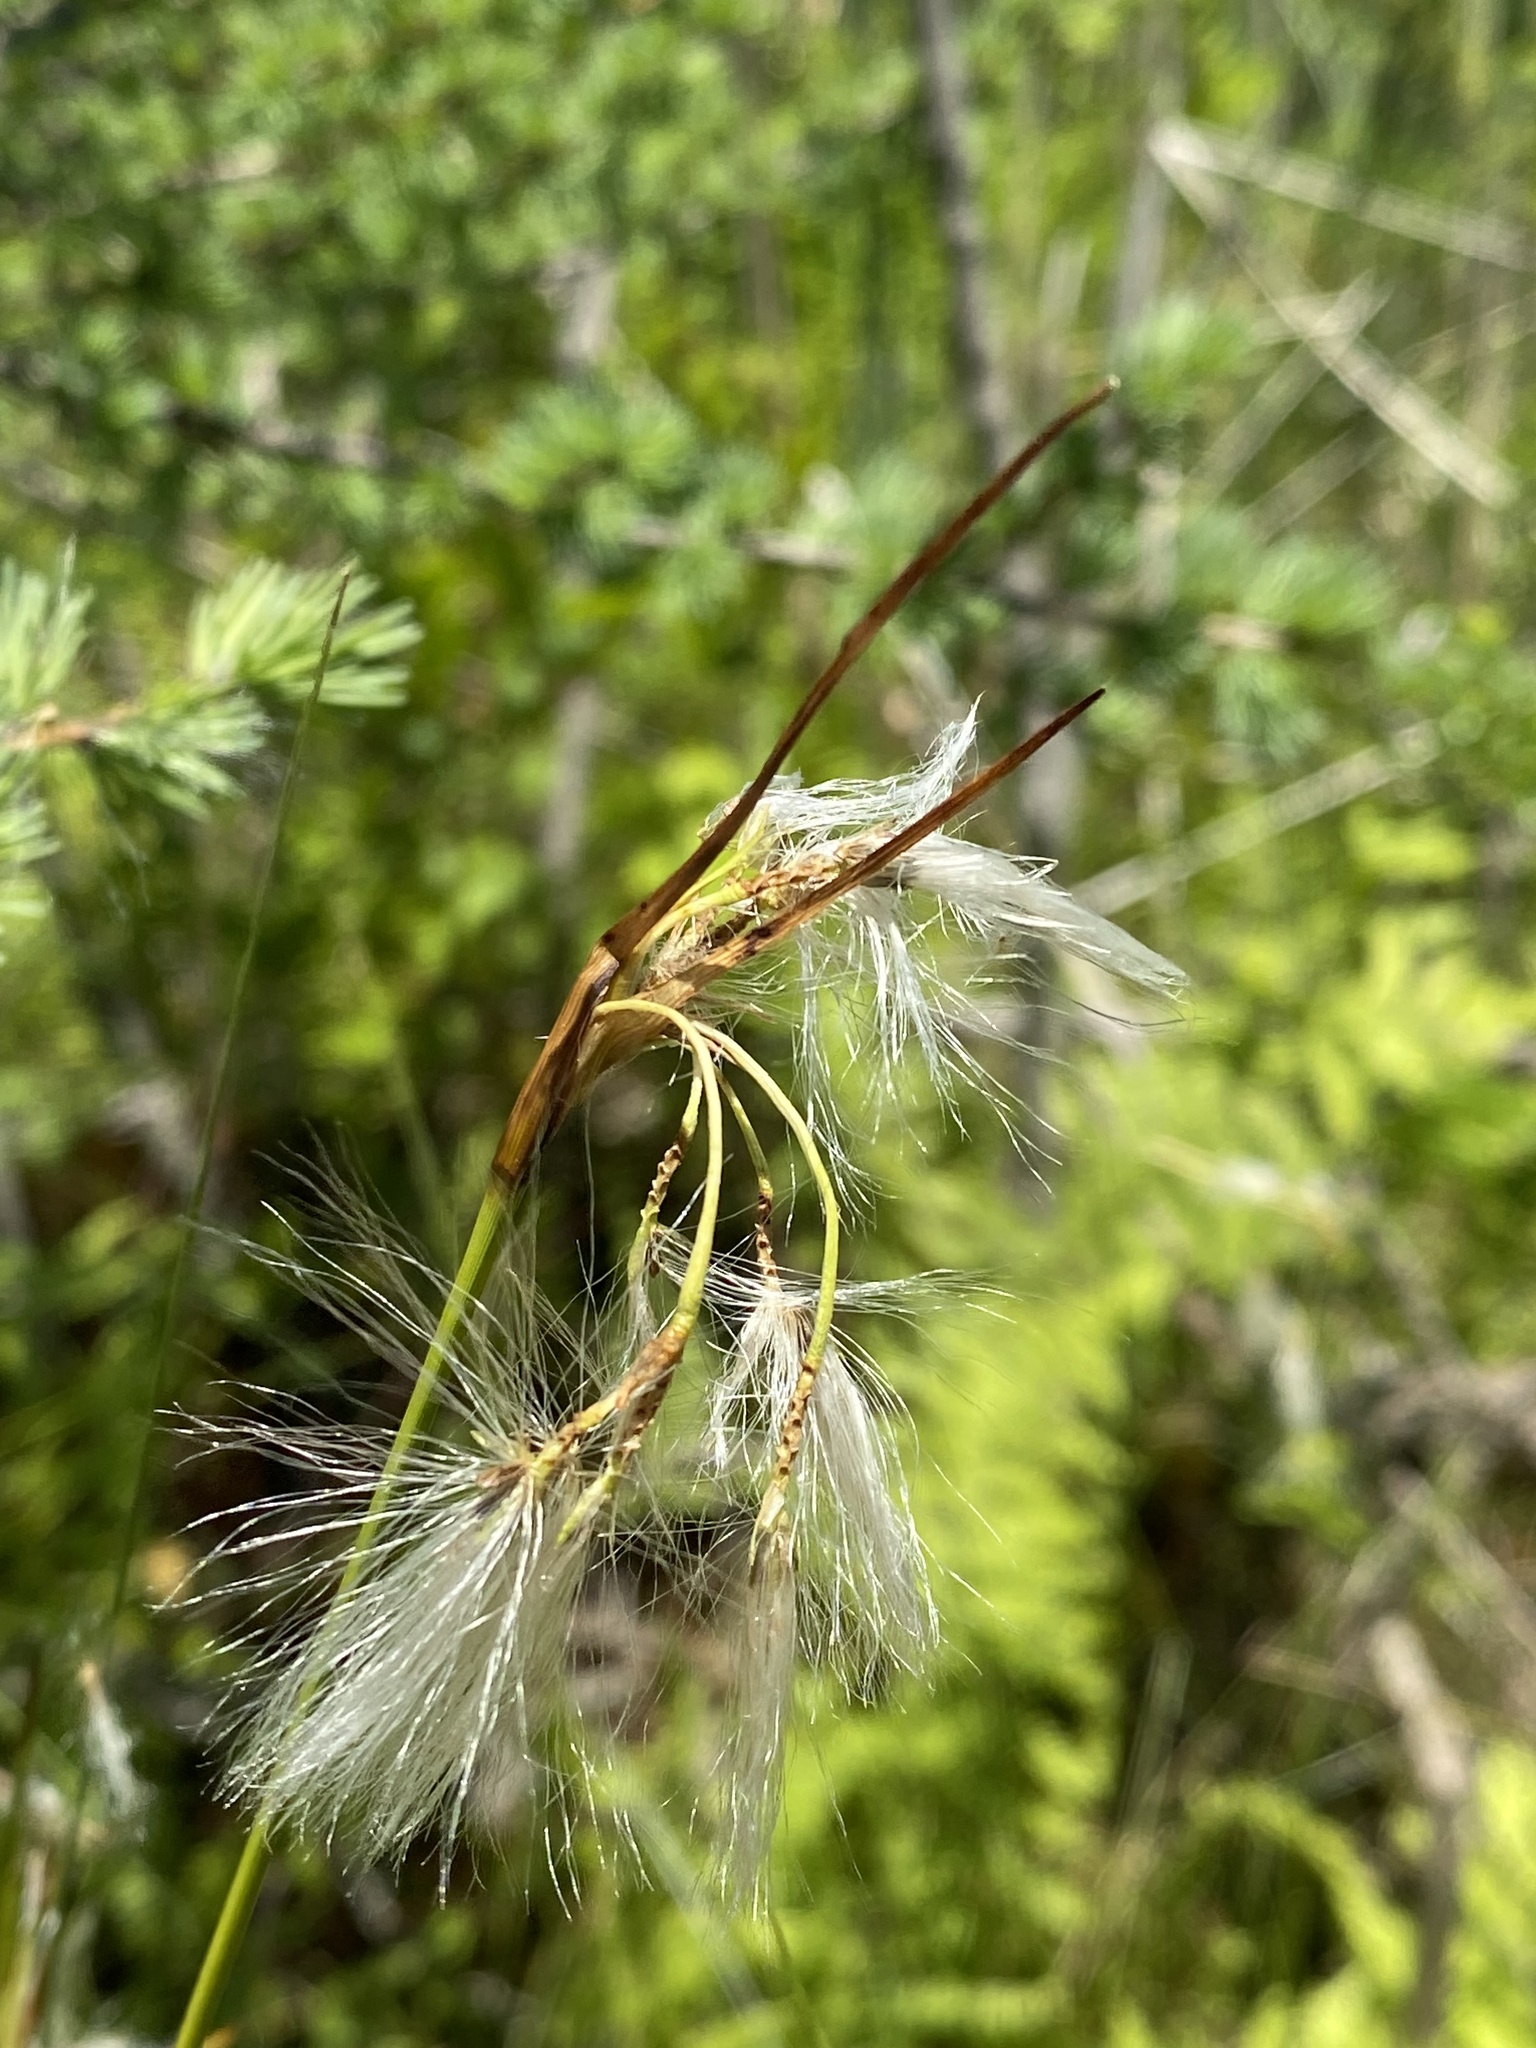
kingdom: Plantae
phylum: Tracheophyta
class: Liliopsida
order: Poales
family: Cyperaceae
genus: Eriophorum
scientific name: Eriophorum viridicarinatum
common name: Green-keeled cottongrass
